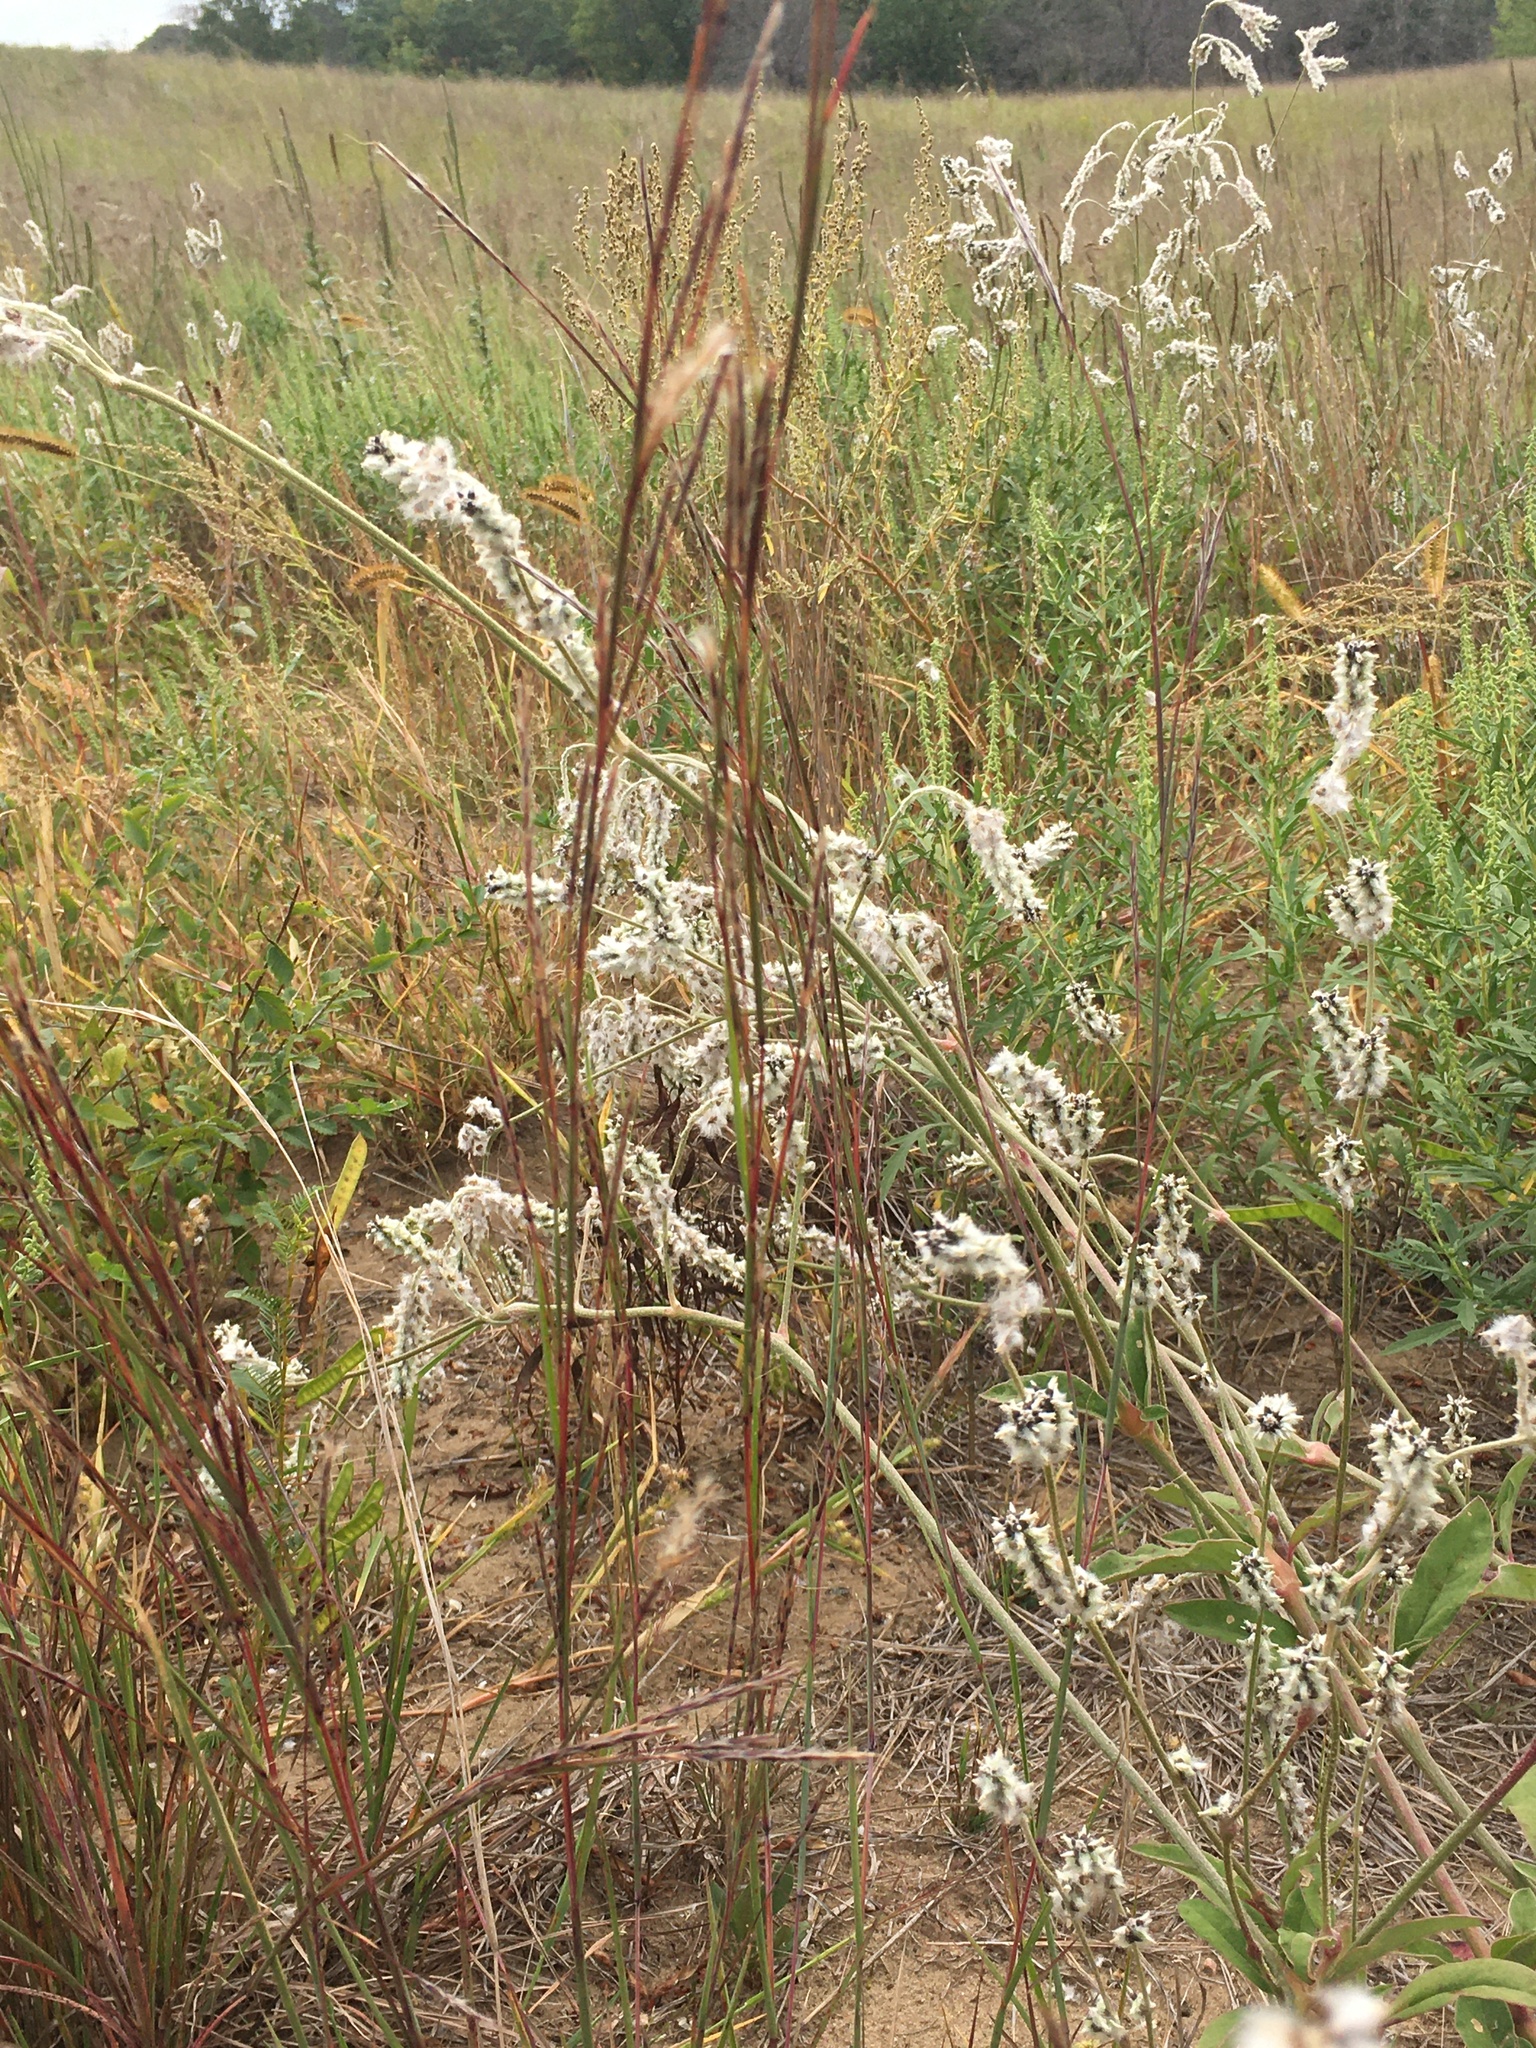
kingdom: Plantae
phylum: Tracheophyta
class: Liliopsida
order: Poales
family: Poaceae
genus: Schizachyrium
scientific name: Schizachyrium scoparium
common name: Little bluestem
